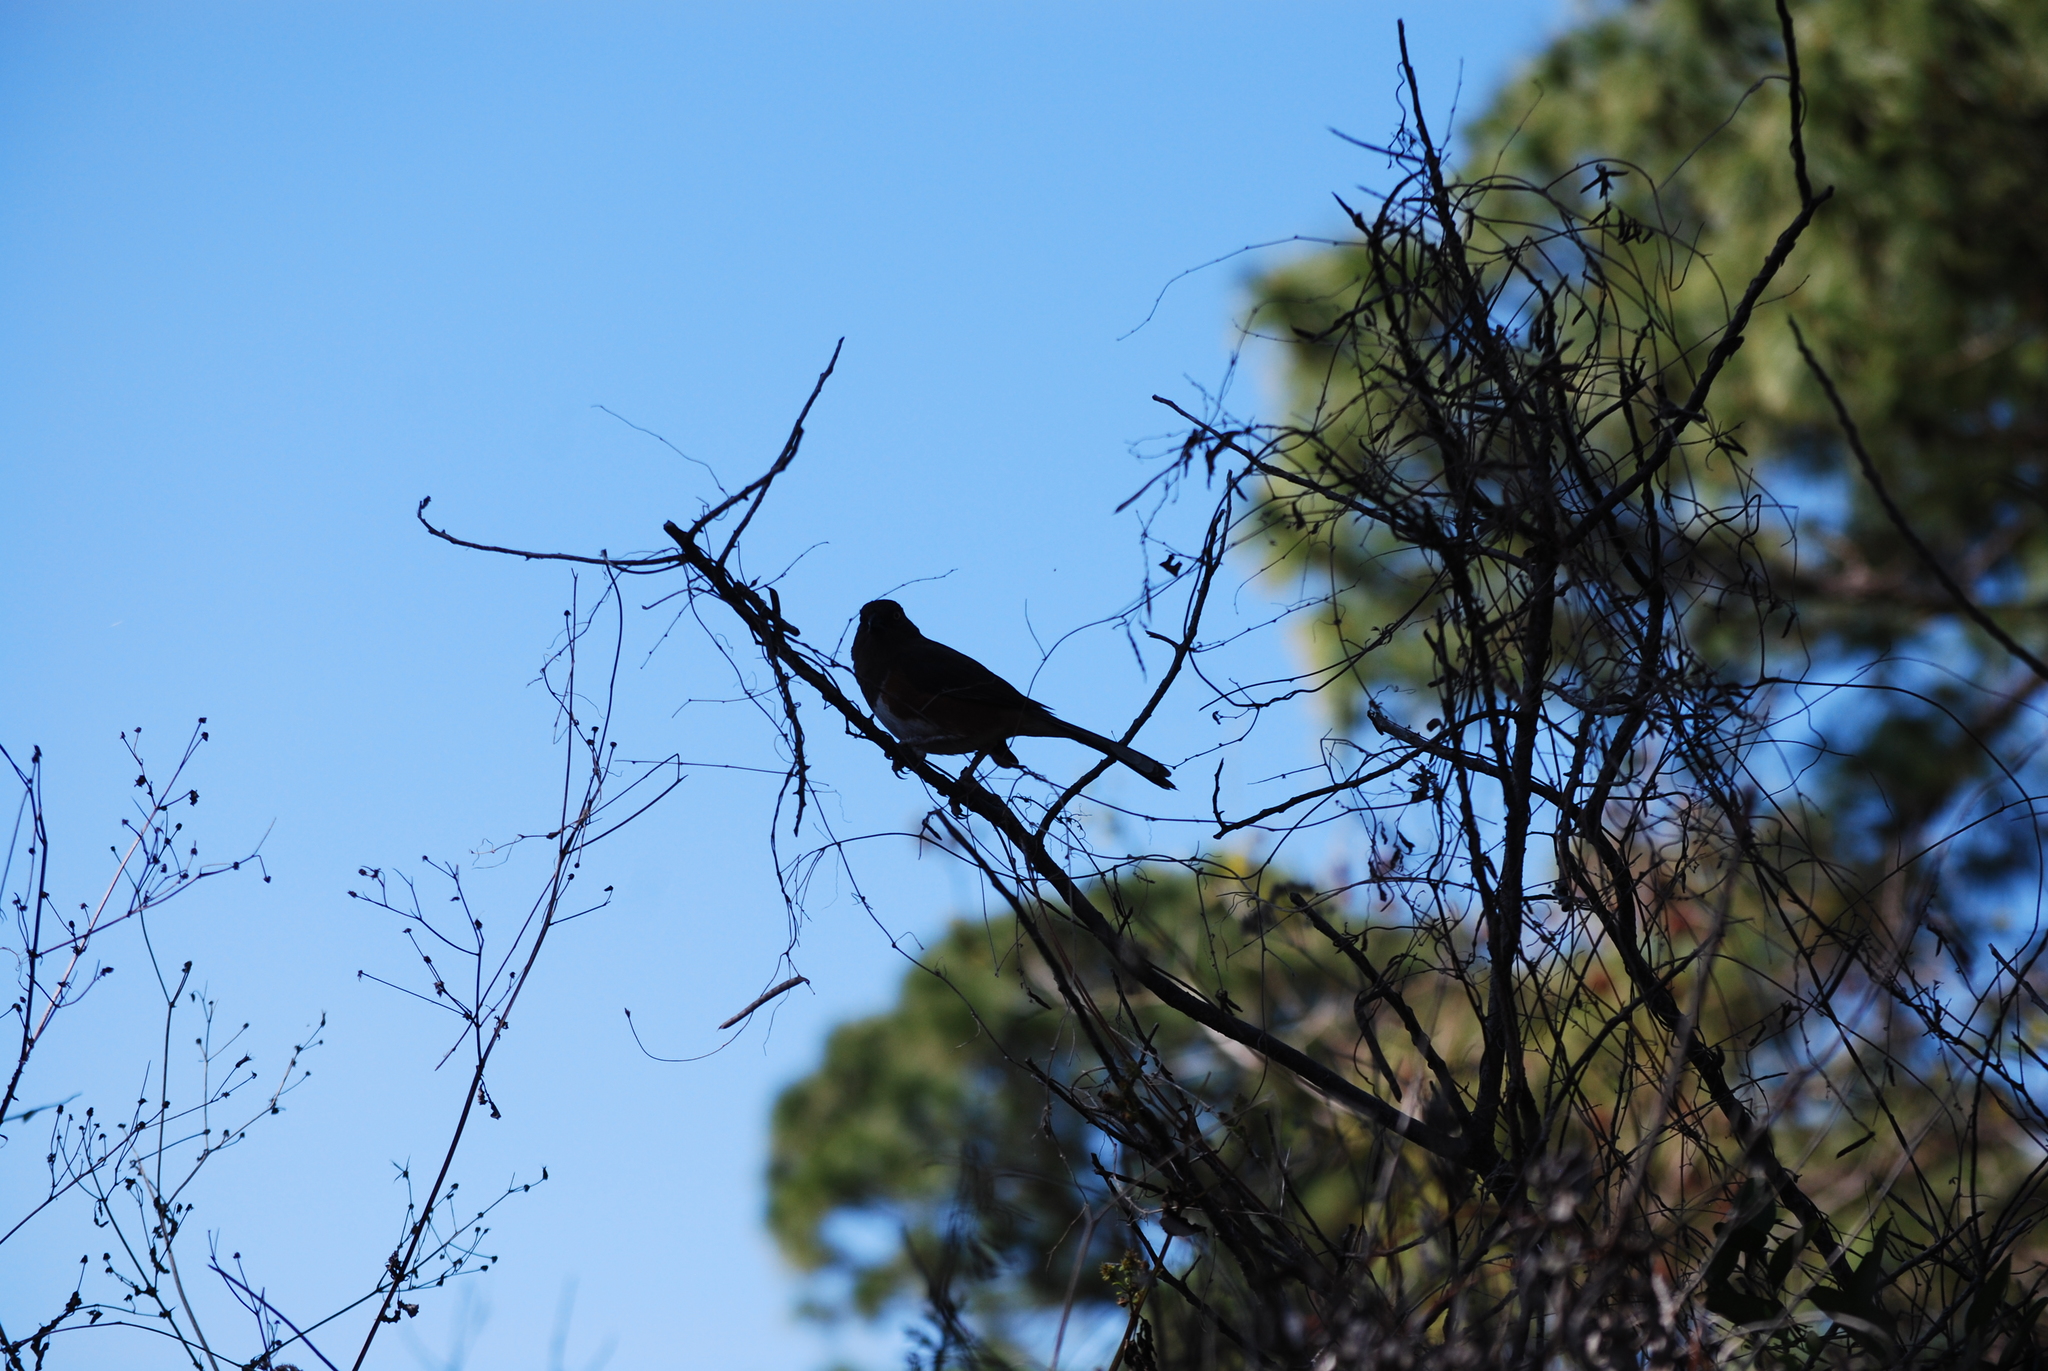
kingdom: Animalia
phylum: Chordata
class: Aves
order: Passeriformes
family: Passerellidae
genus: Pipilo
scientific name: Pipilo erythrophthalmus
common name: Eastern towhee
